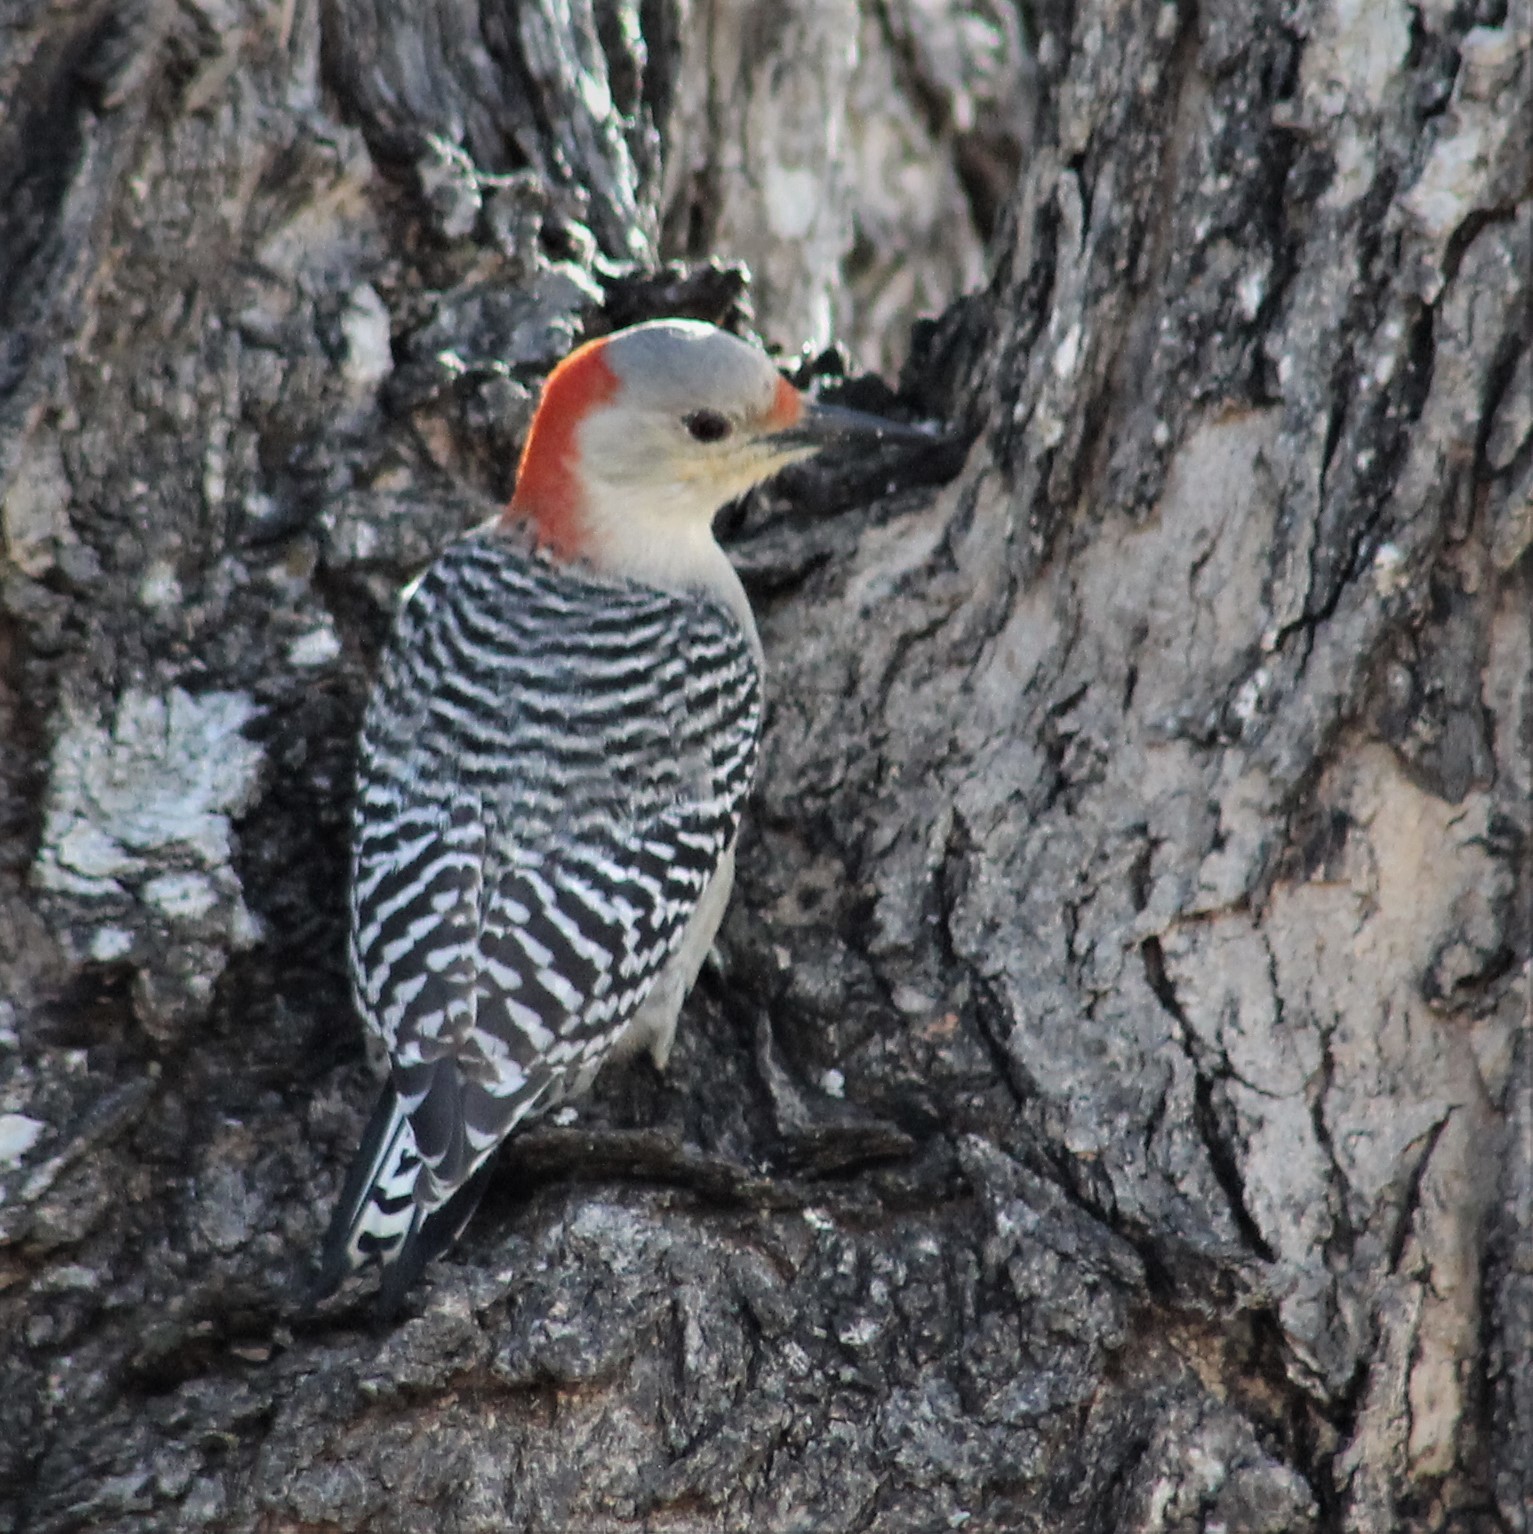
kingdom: Animalia
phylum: Chordata
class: Aves
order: Piciformes
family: Picidae
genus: Melanerpes
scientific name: Melanerpes carolinus
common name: Red-bellied woodpecker
